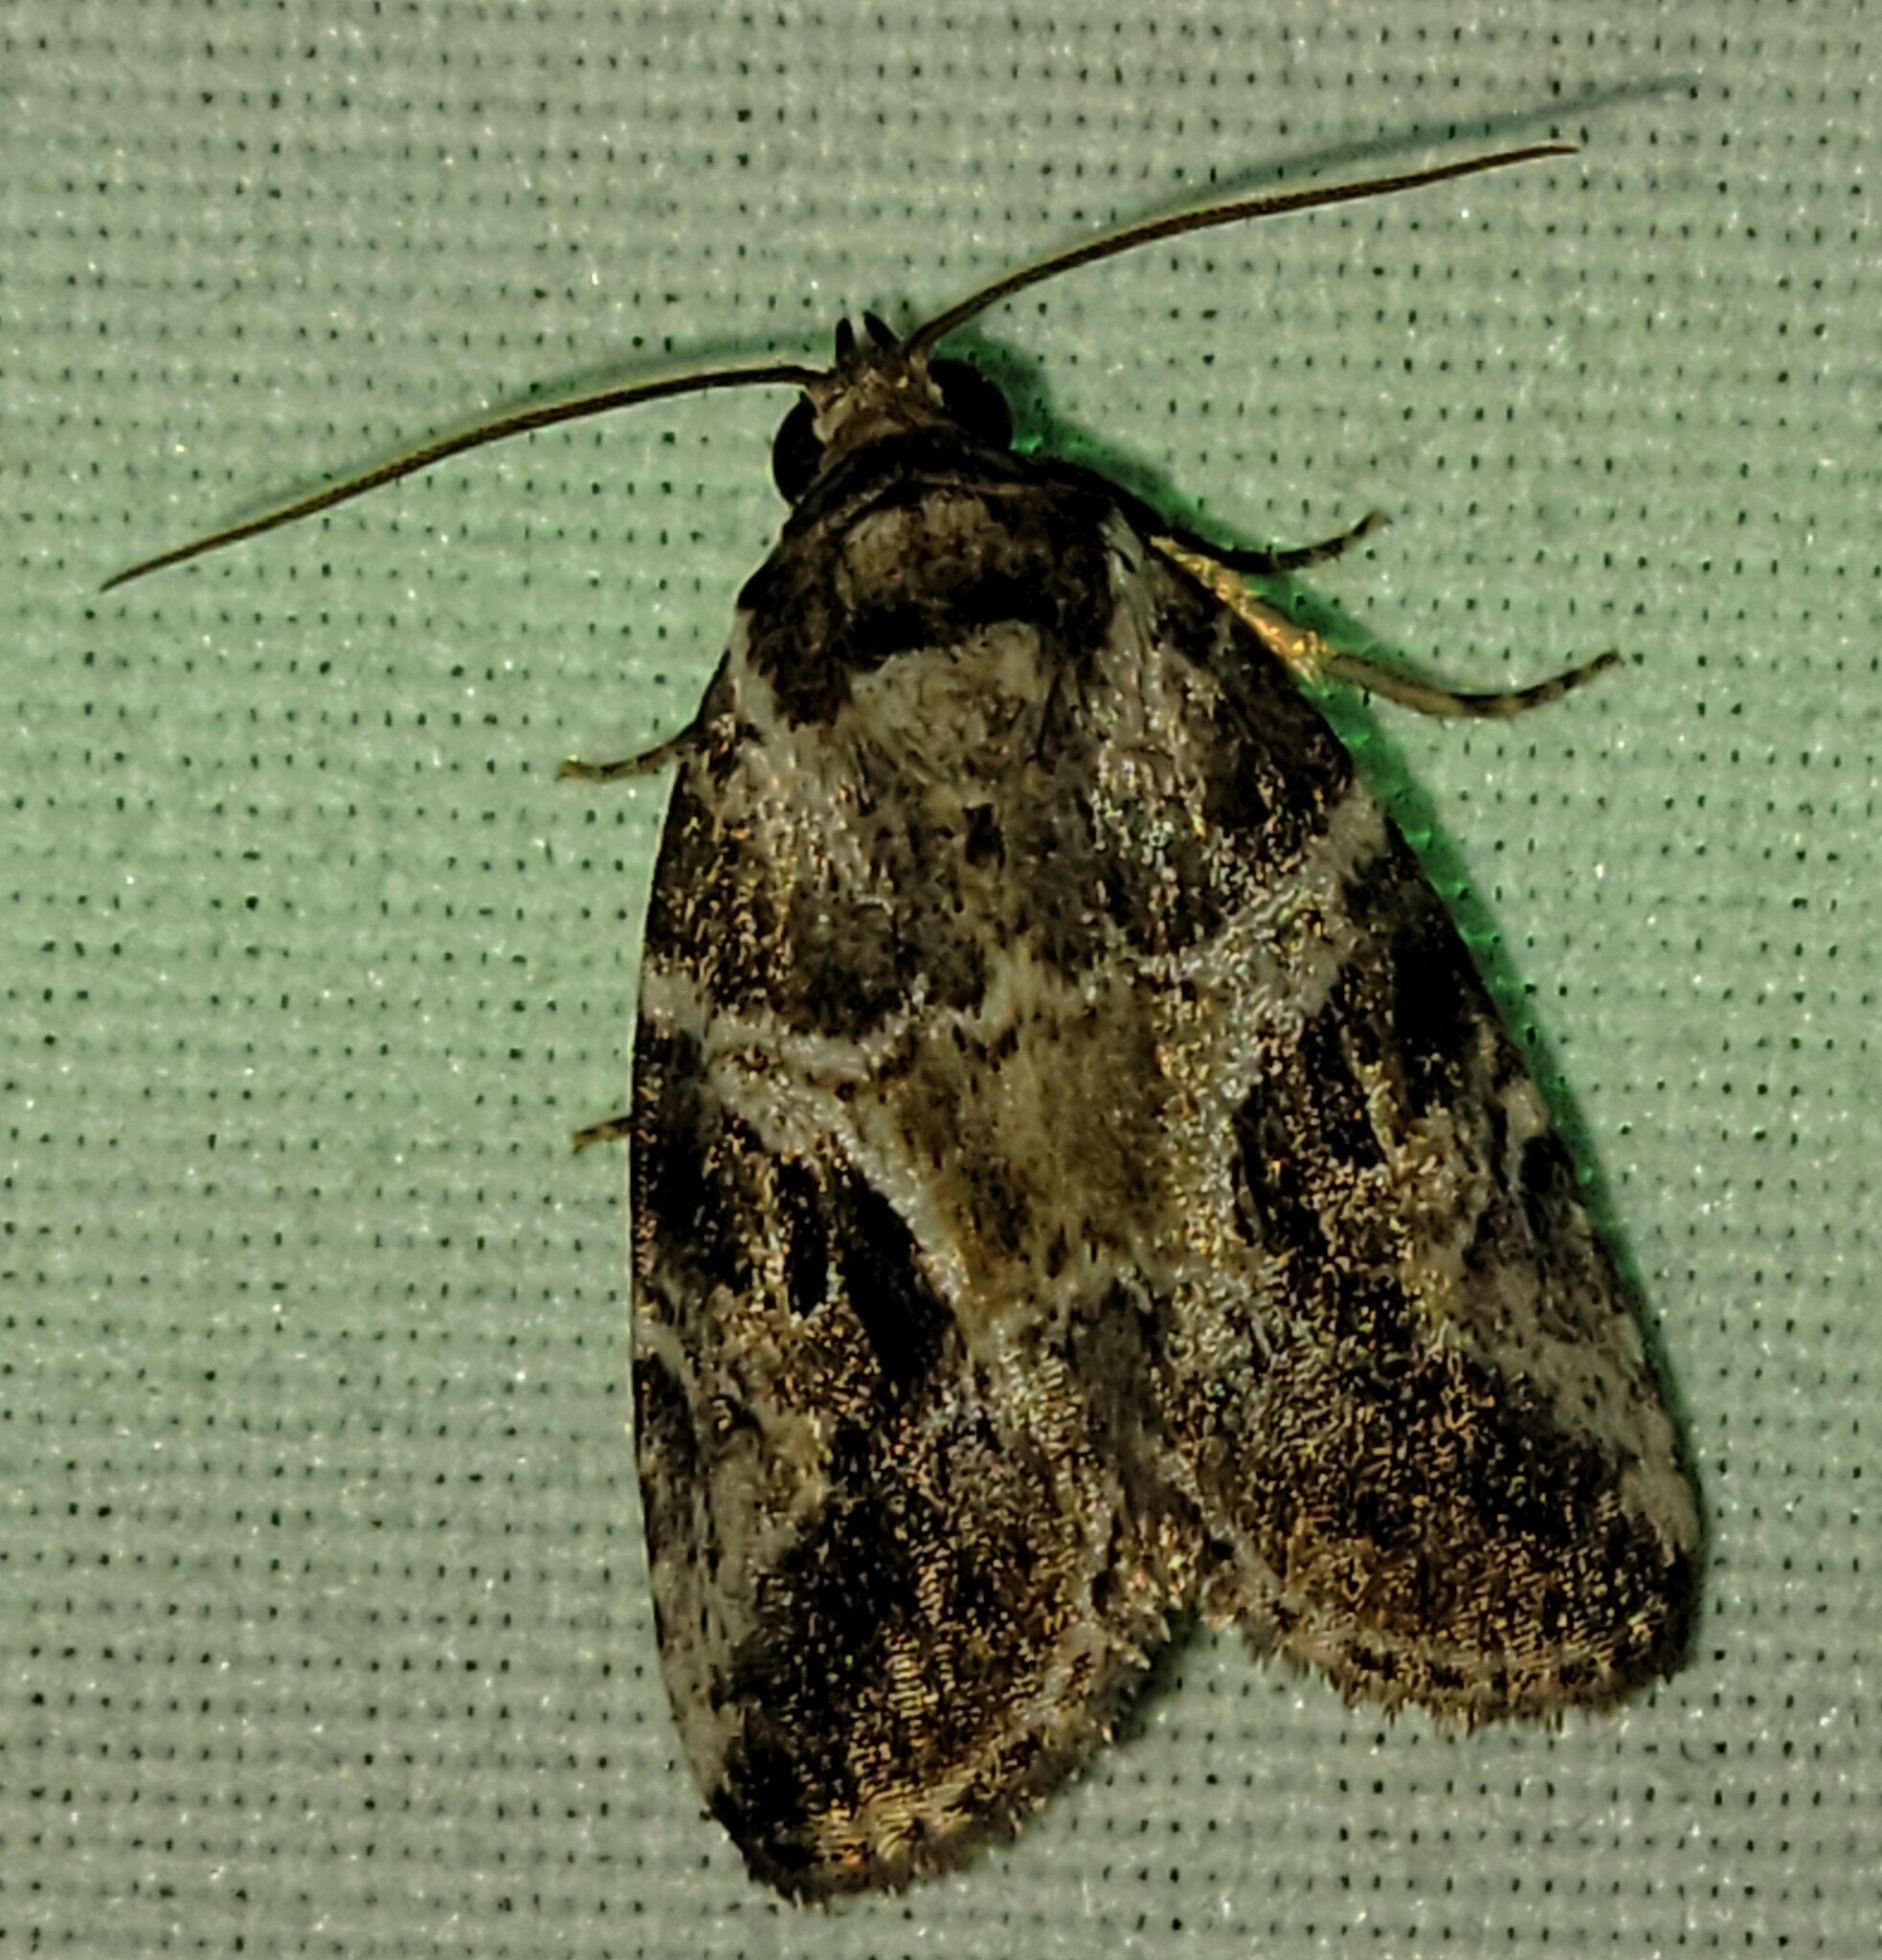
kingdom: Animalia
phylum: Arthropoda
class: Insecta
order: Lepidoptera
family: Noctuidae
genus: Diastema
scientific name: Diastema cnossia
